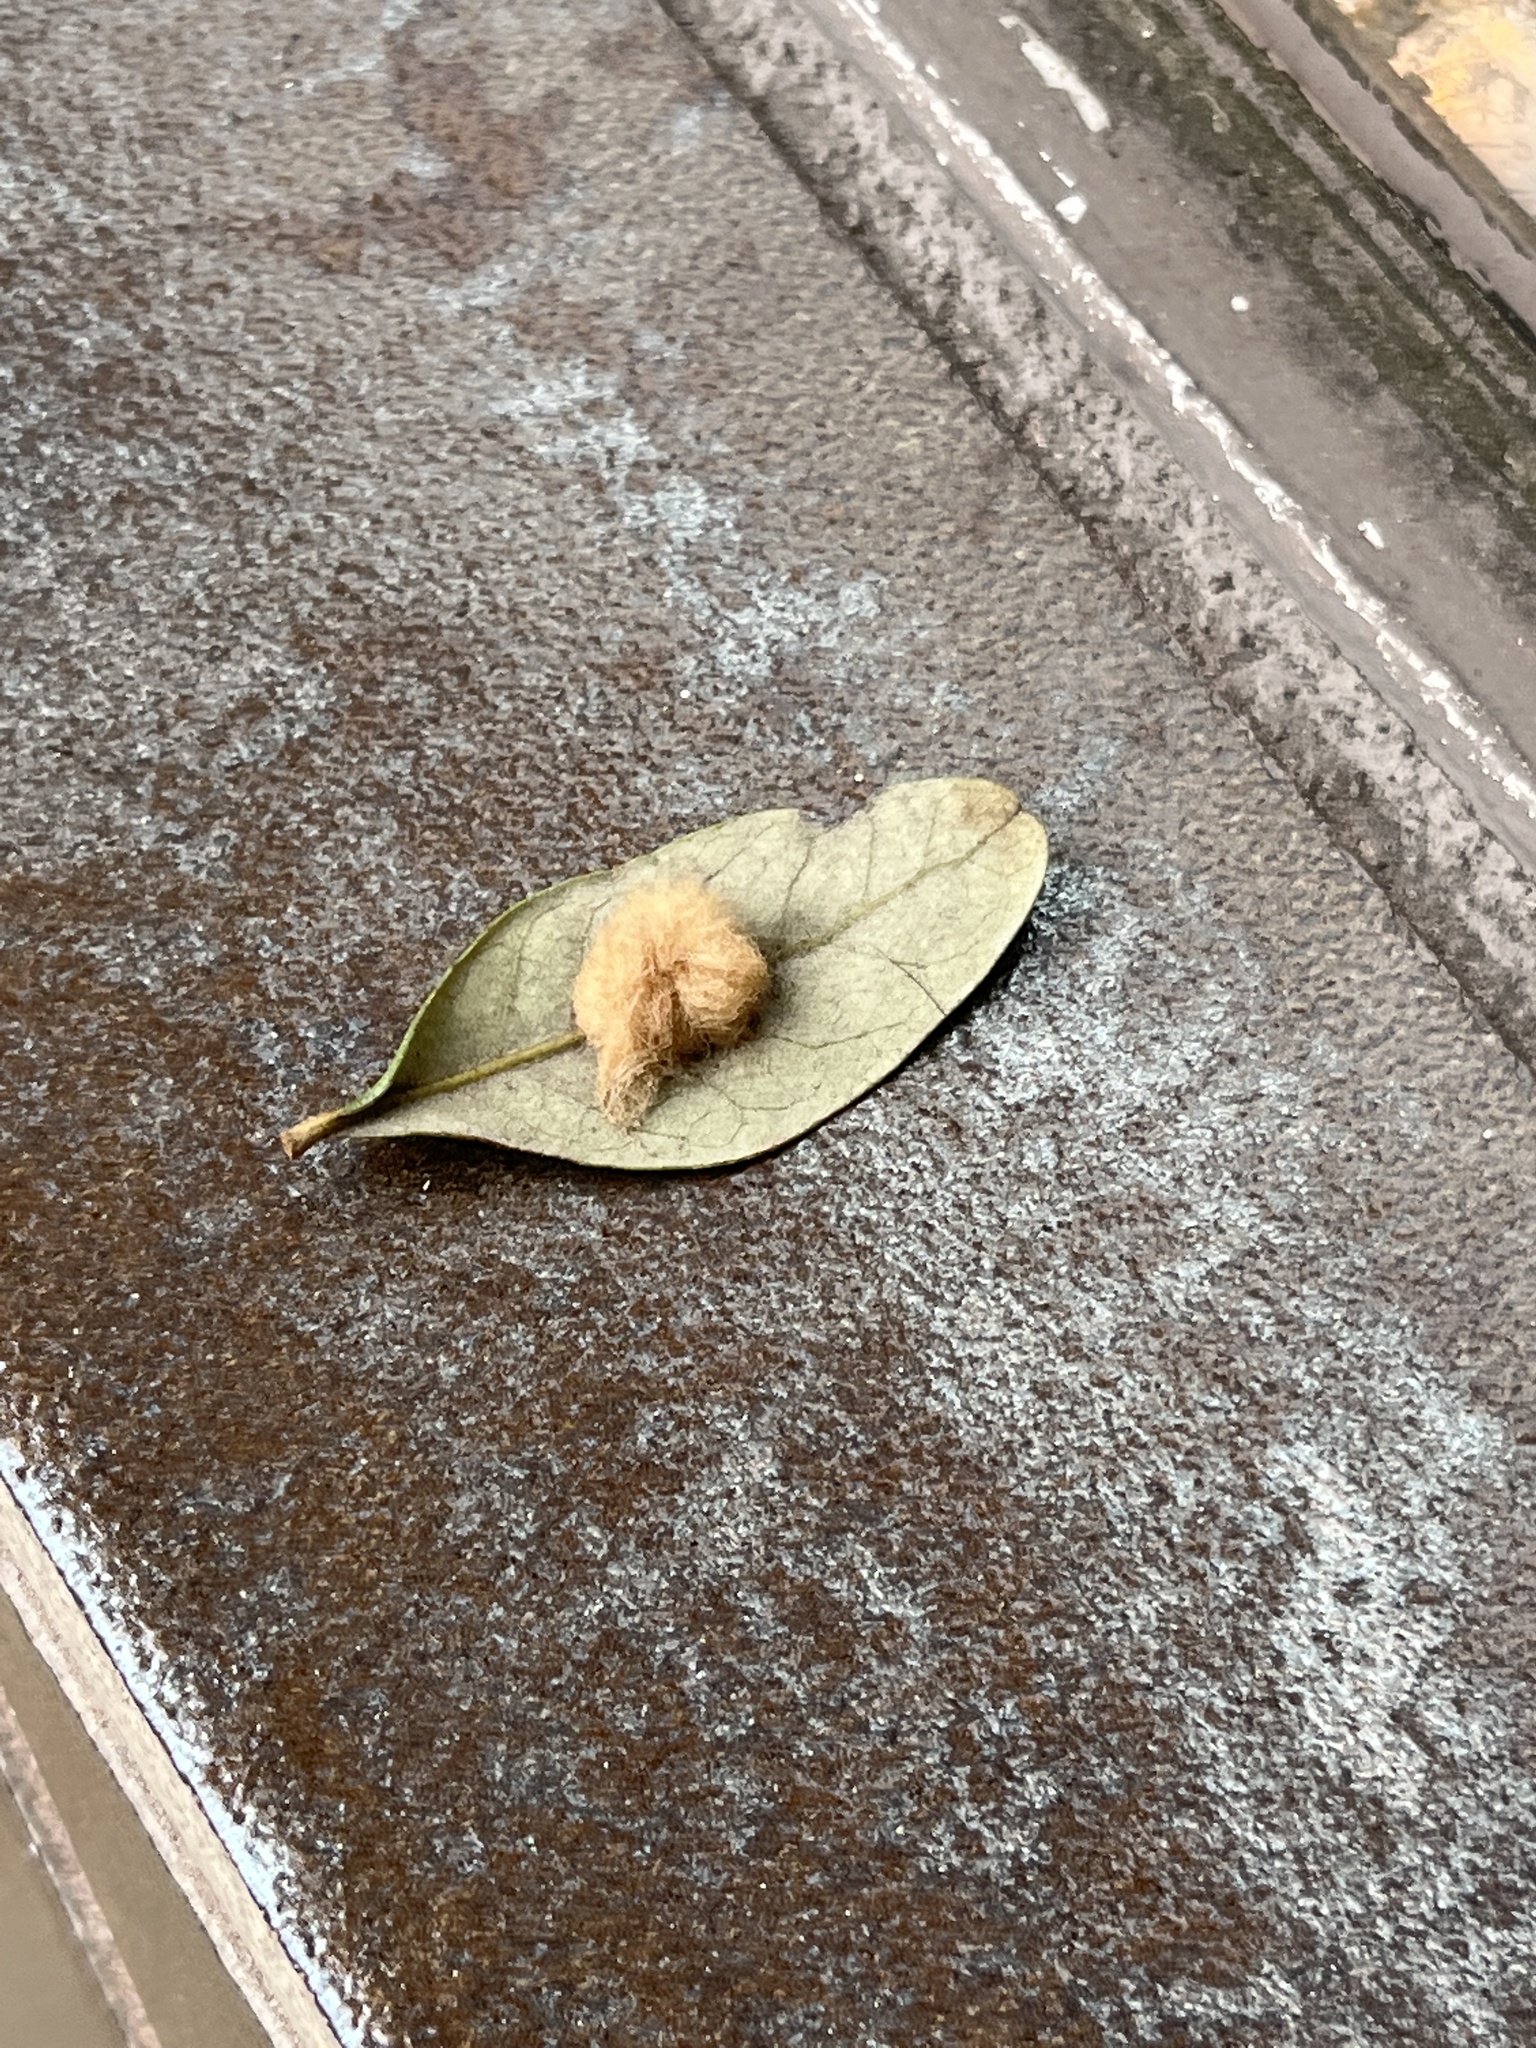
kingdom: Animalia
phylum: Arthropoda
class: Insecta
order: Hymenoptera
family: Cynipidae
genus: Andricus
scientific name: Andricus Druon quercuslanigerum
